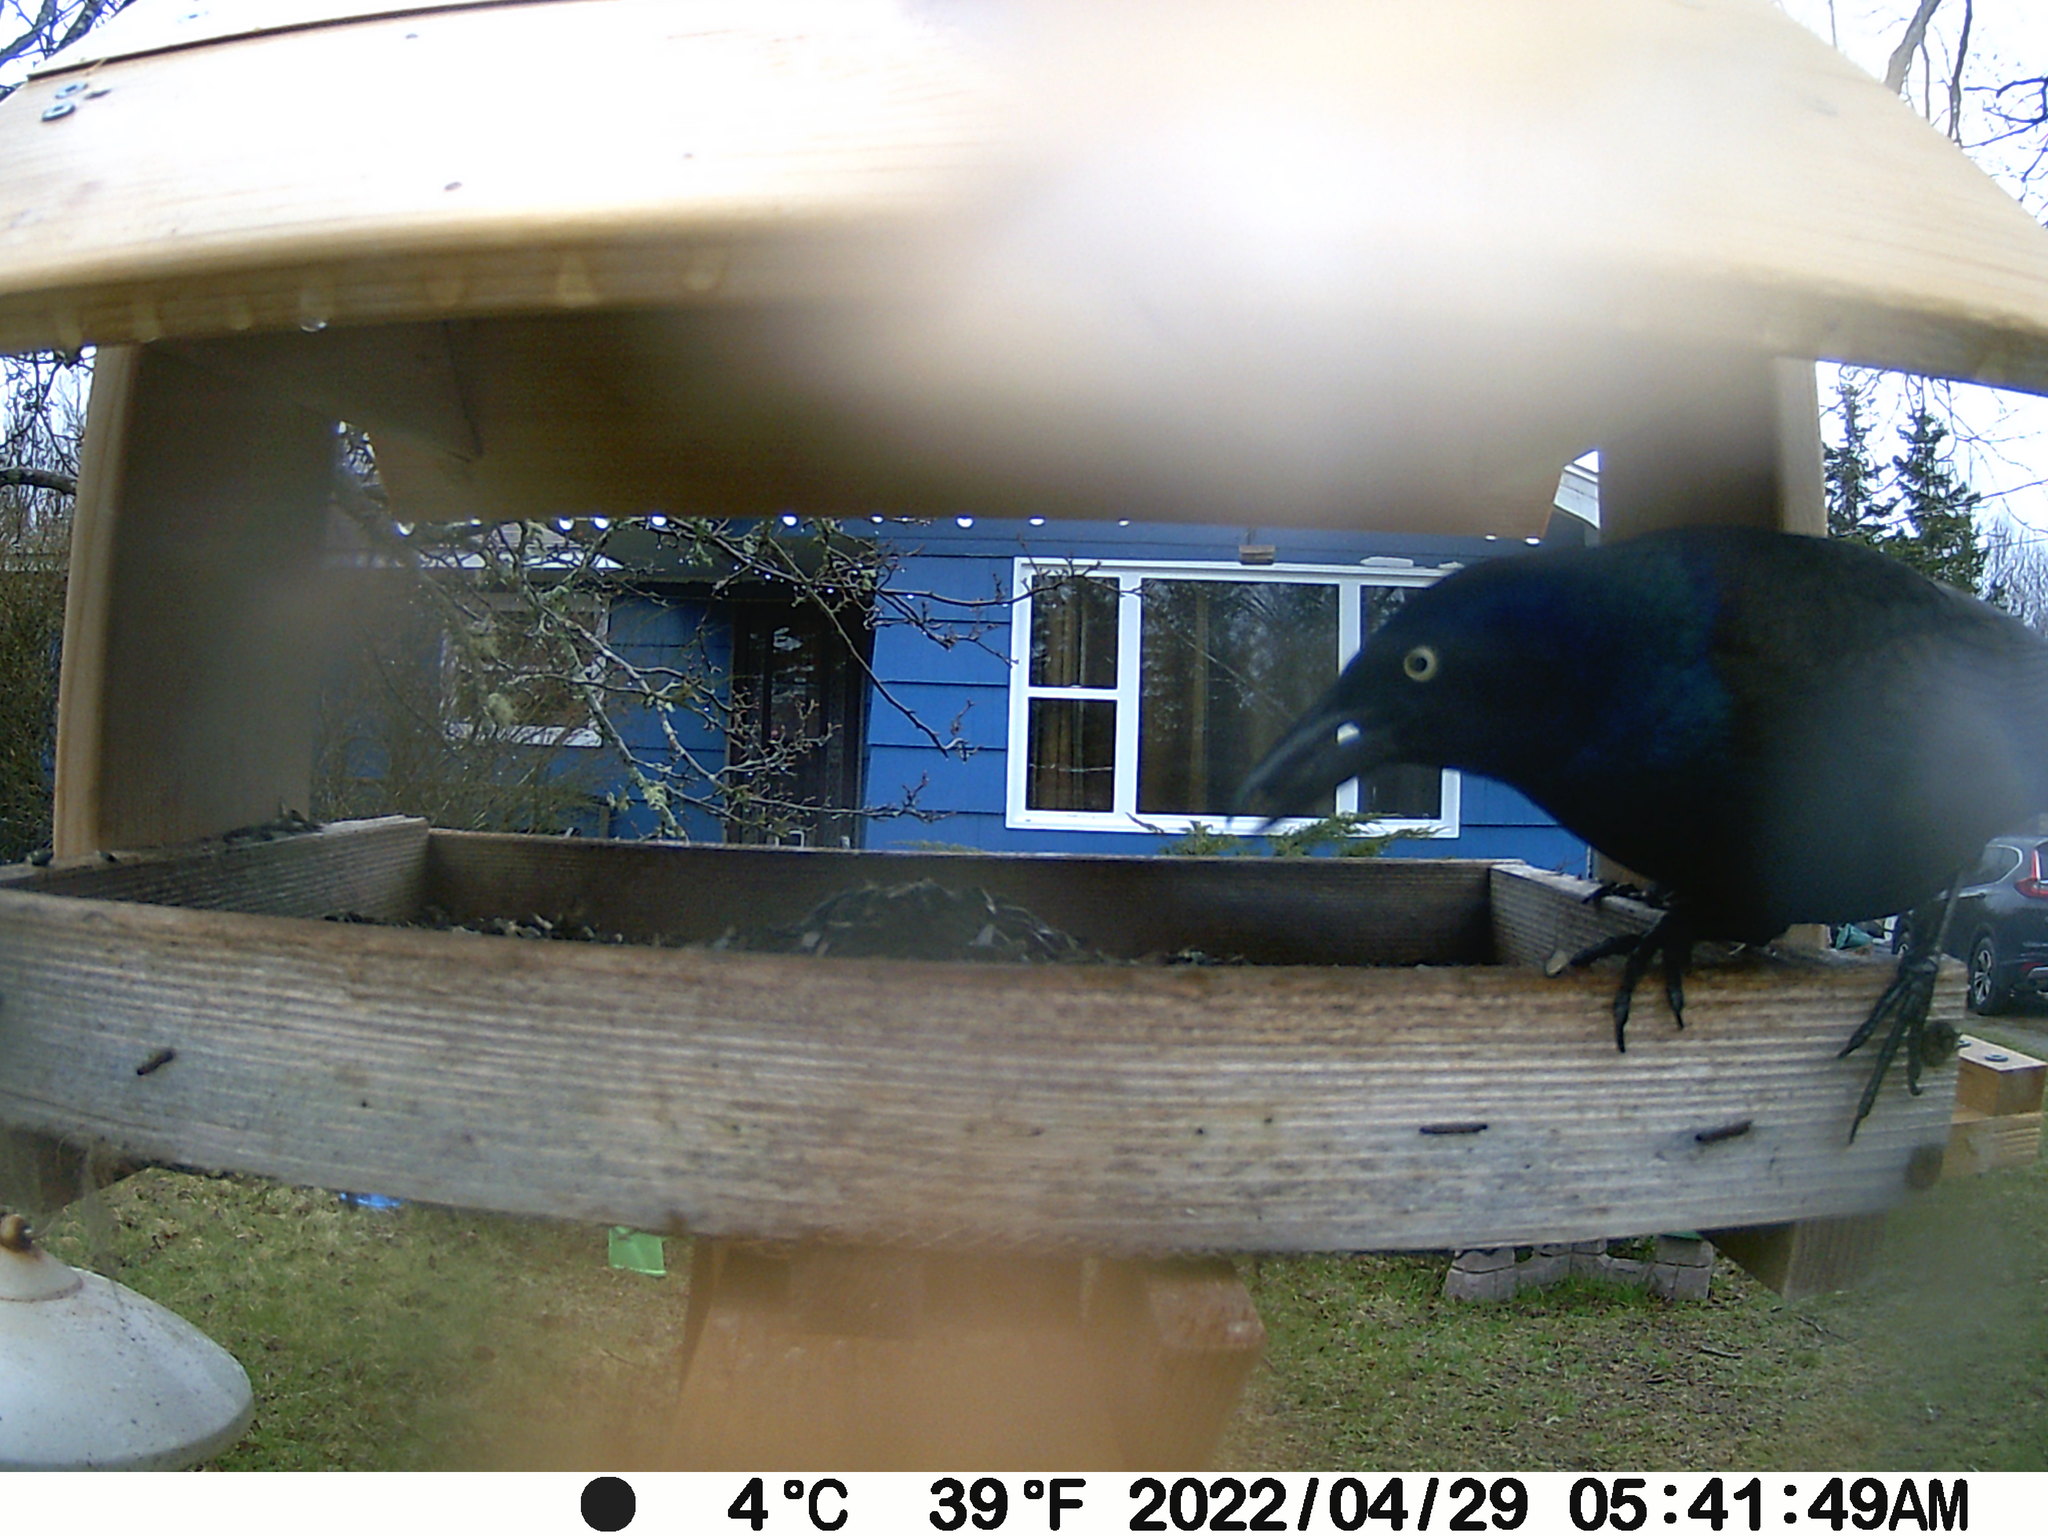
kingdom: Animalia
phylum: Chordata
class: Aves
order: Passeriformes
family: Icteridae
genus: Quiscalus
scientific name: Quiscalus quiscula
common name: Common grackle
